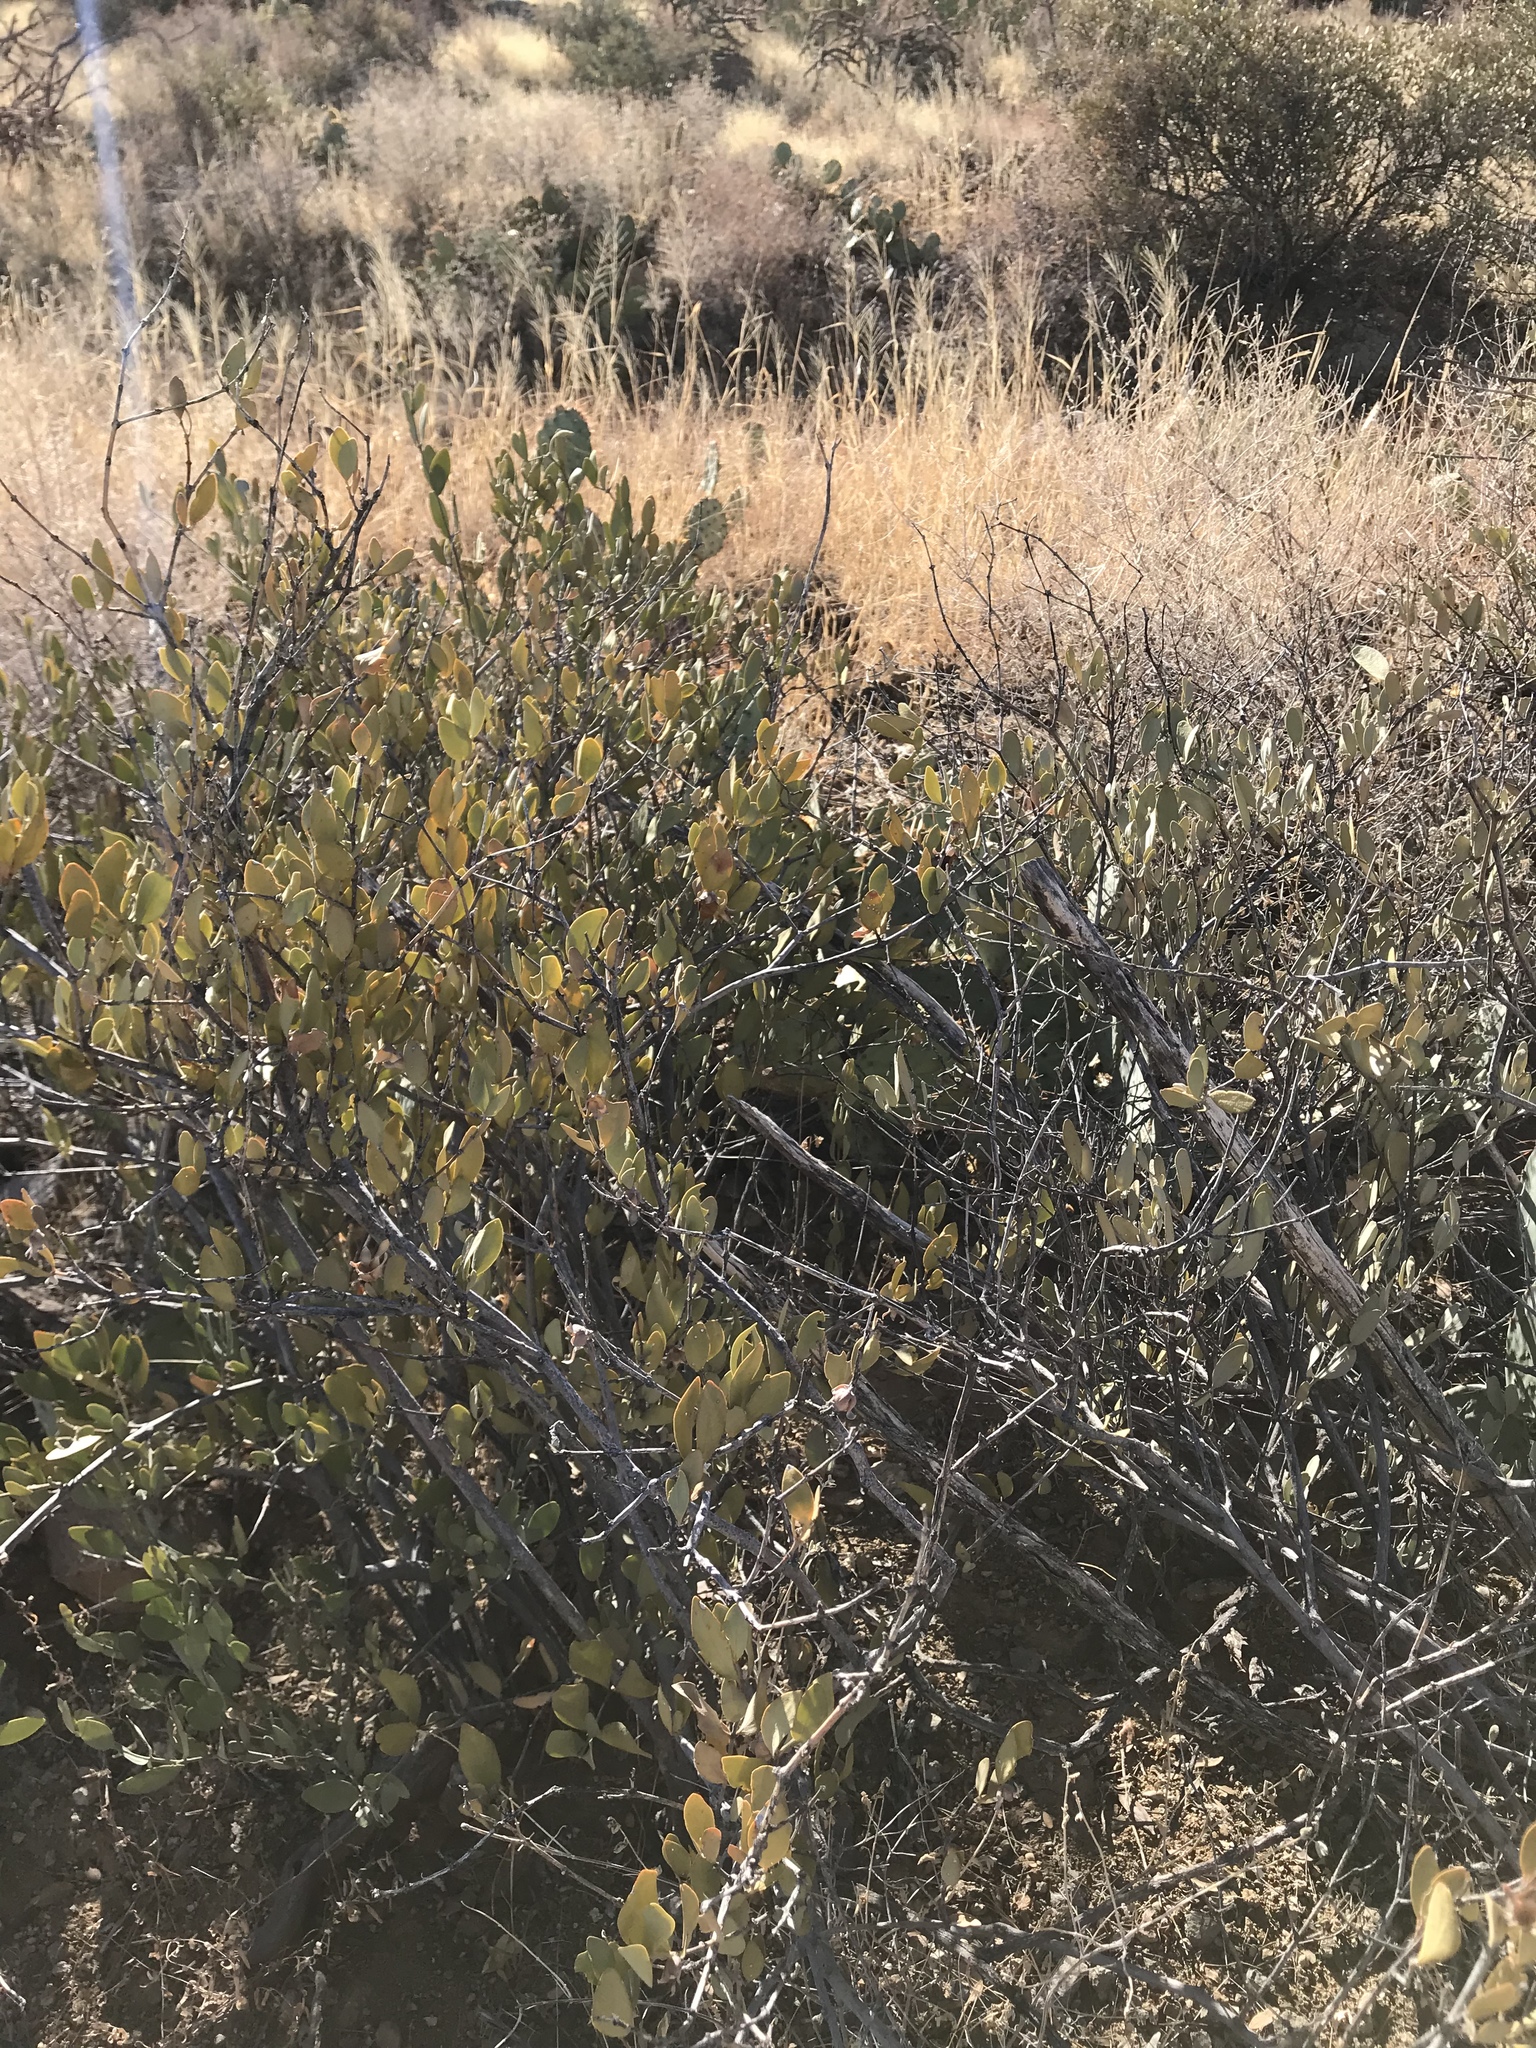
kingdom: Plantae
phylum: Tracheophyta
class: Magnoliopsida
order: Caryophyllales
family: Simmondsiaceae
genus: Simmondsia
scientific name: Simmondsia chinensis
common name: Jojoba
